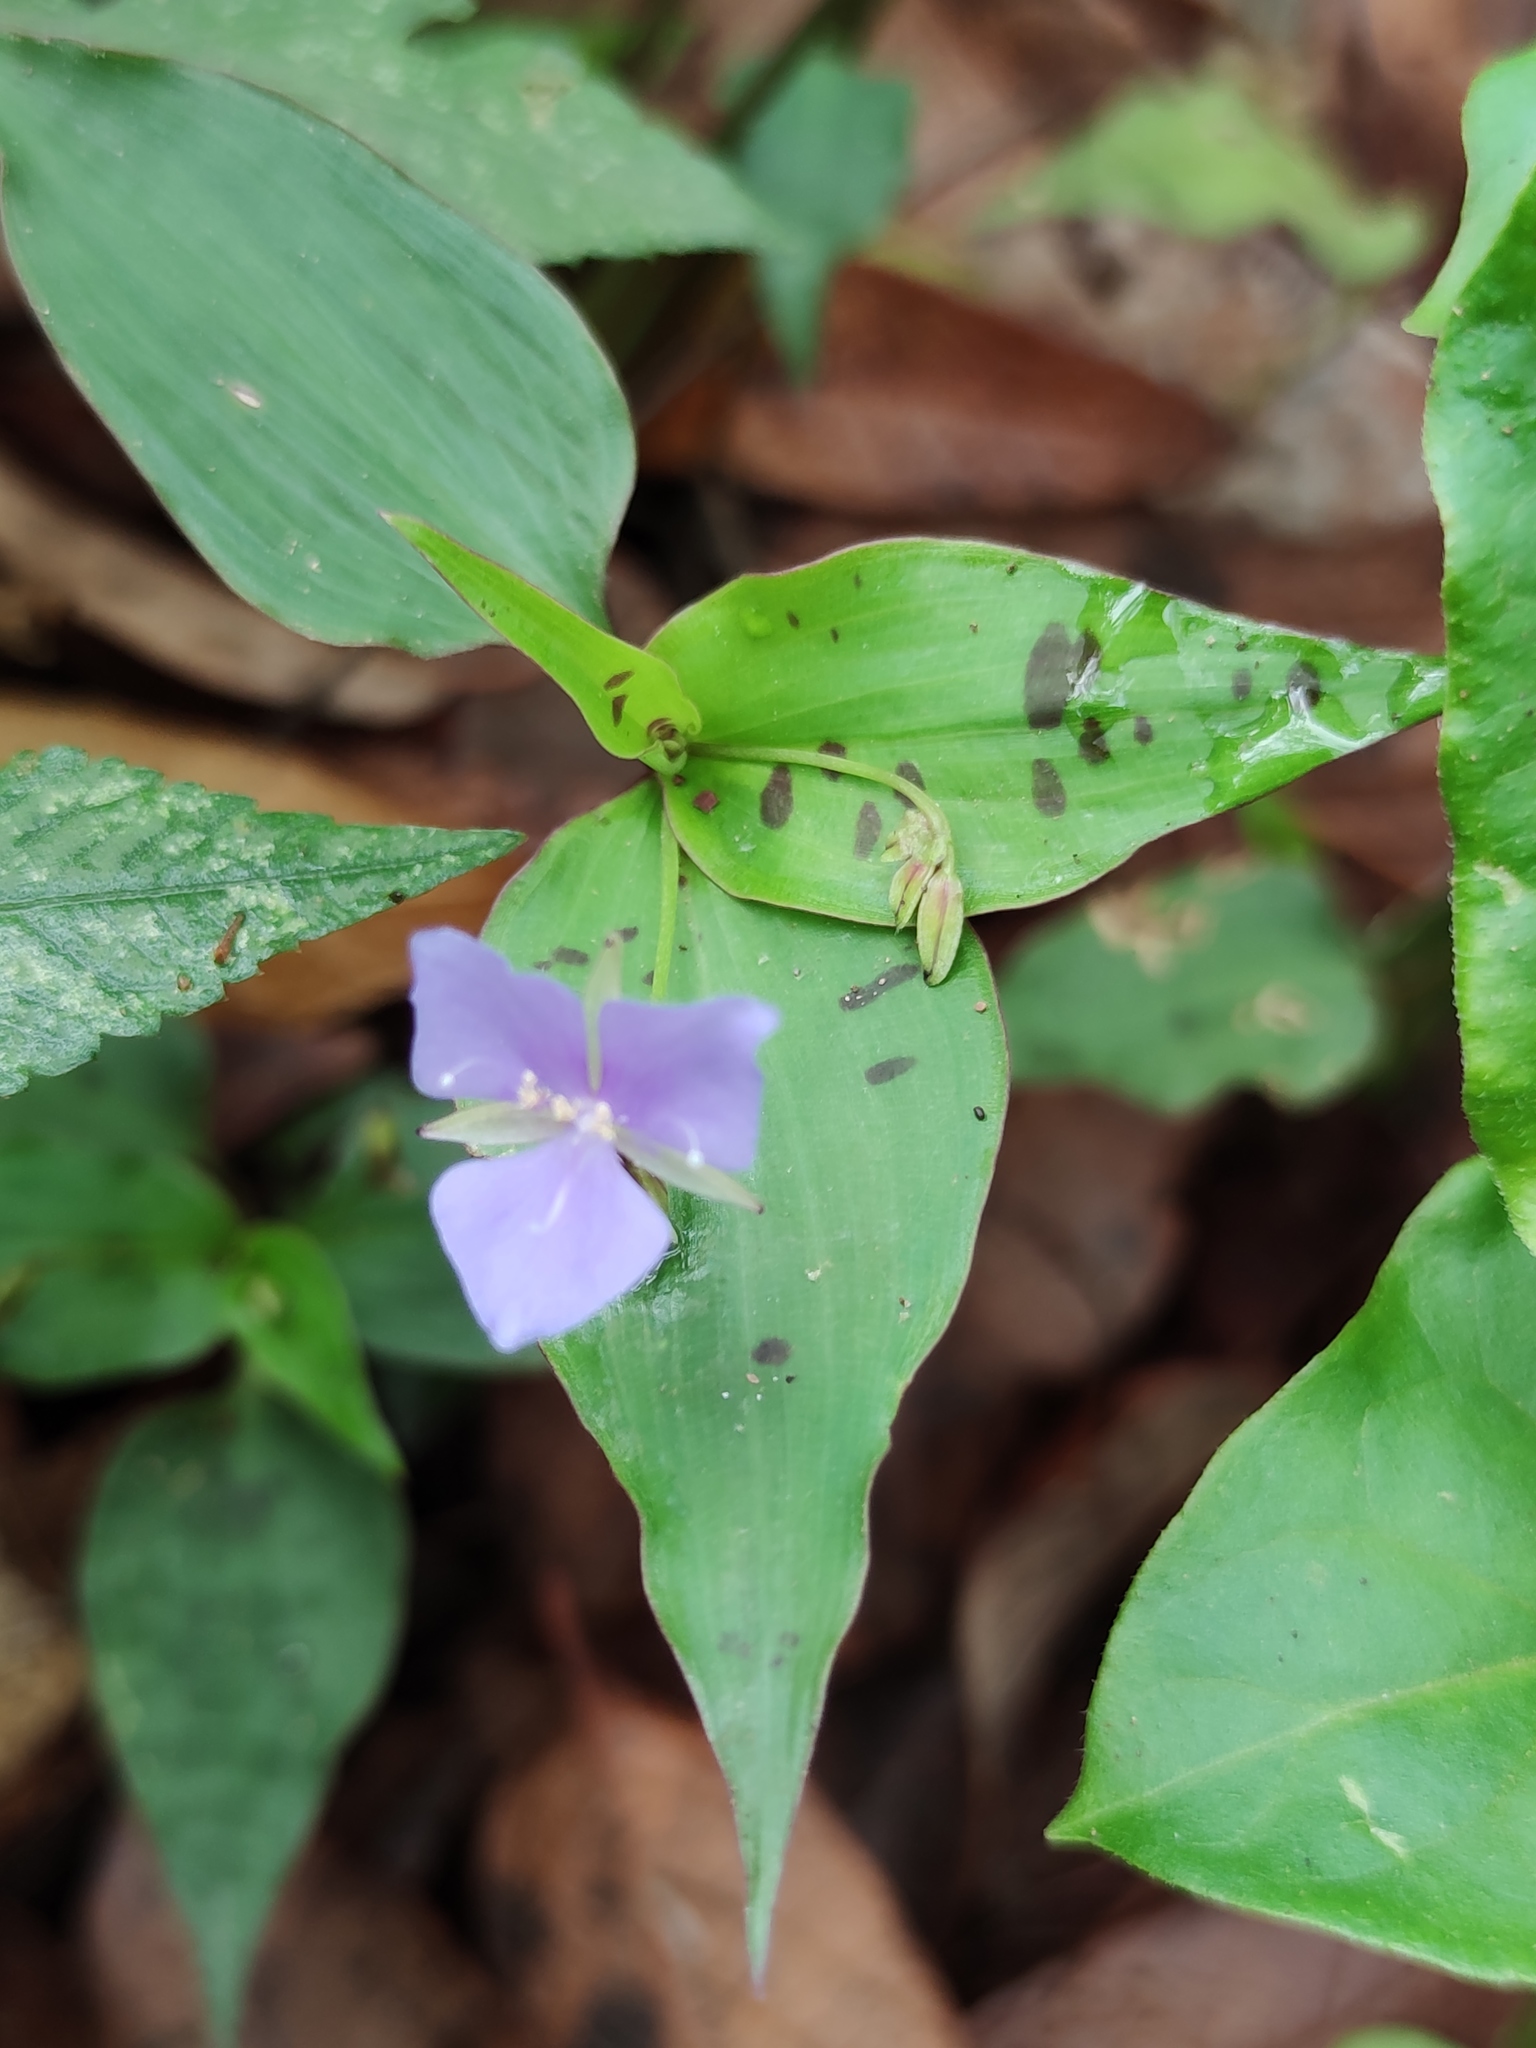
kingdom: Plantae
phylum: Tracheophyta
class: Liliopsida
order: Commelinales
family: Commelinaceae
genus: Tinantia
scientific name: Tinantia pringlei
